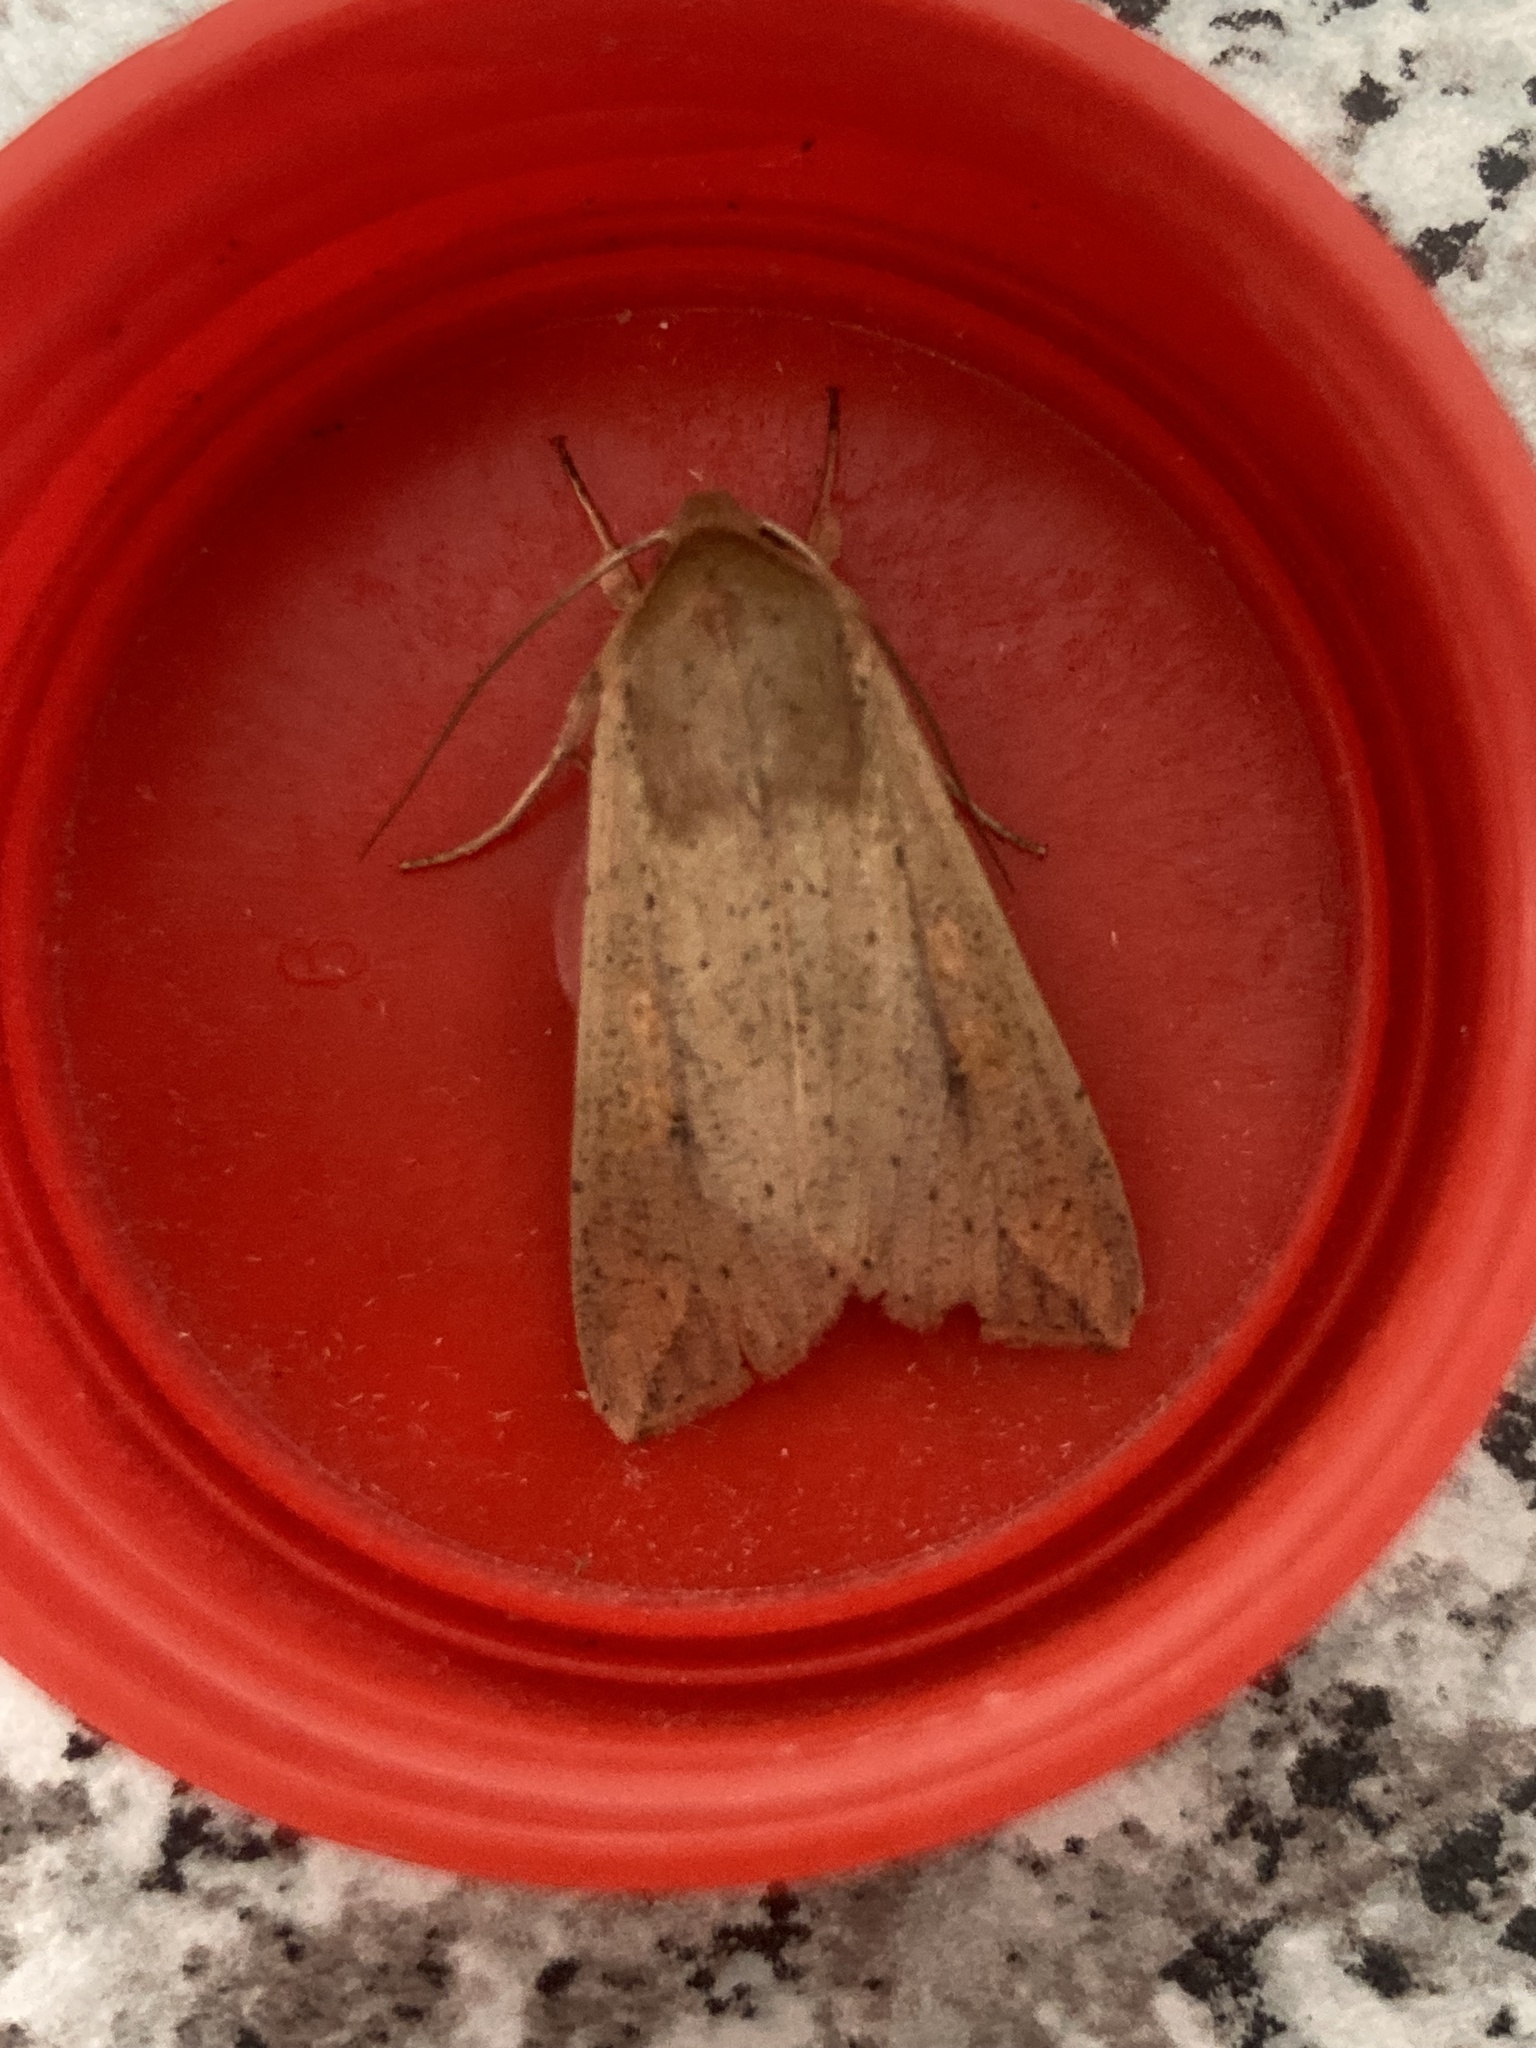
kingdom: Animalia
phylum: Arthropoda
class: Insecta
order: Lepidoptera
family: Noctuidae
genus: Mythimna
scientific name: Mythimna unipuncta
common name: White-speck
